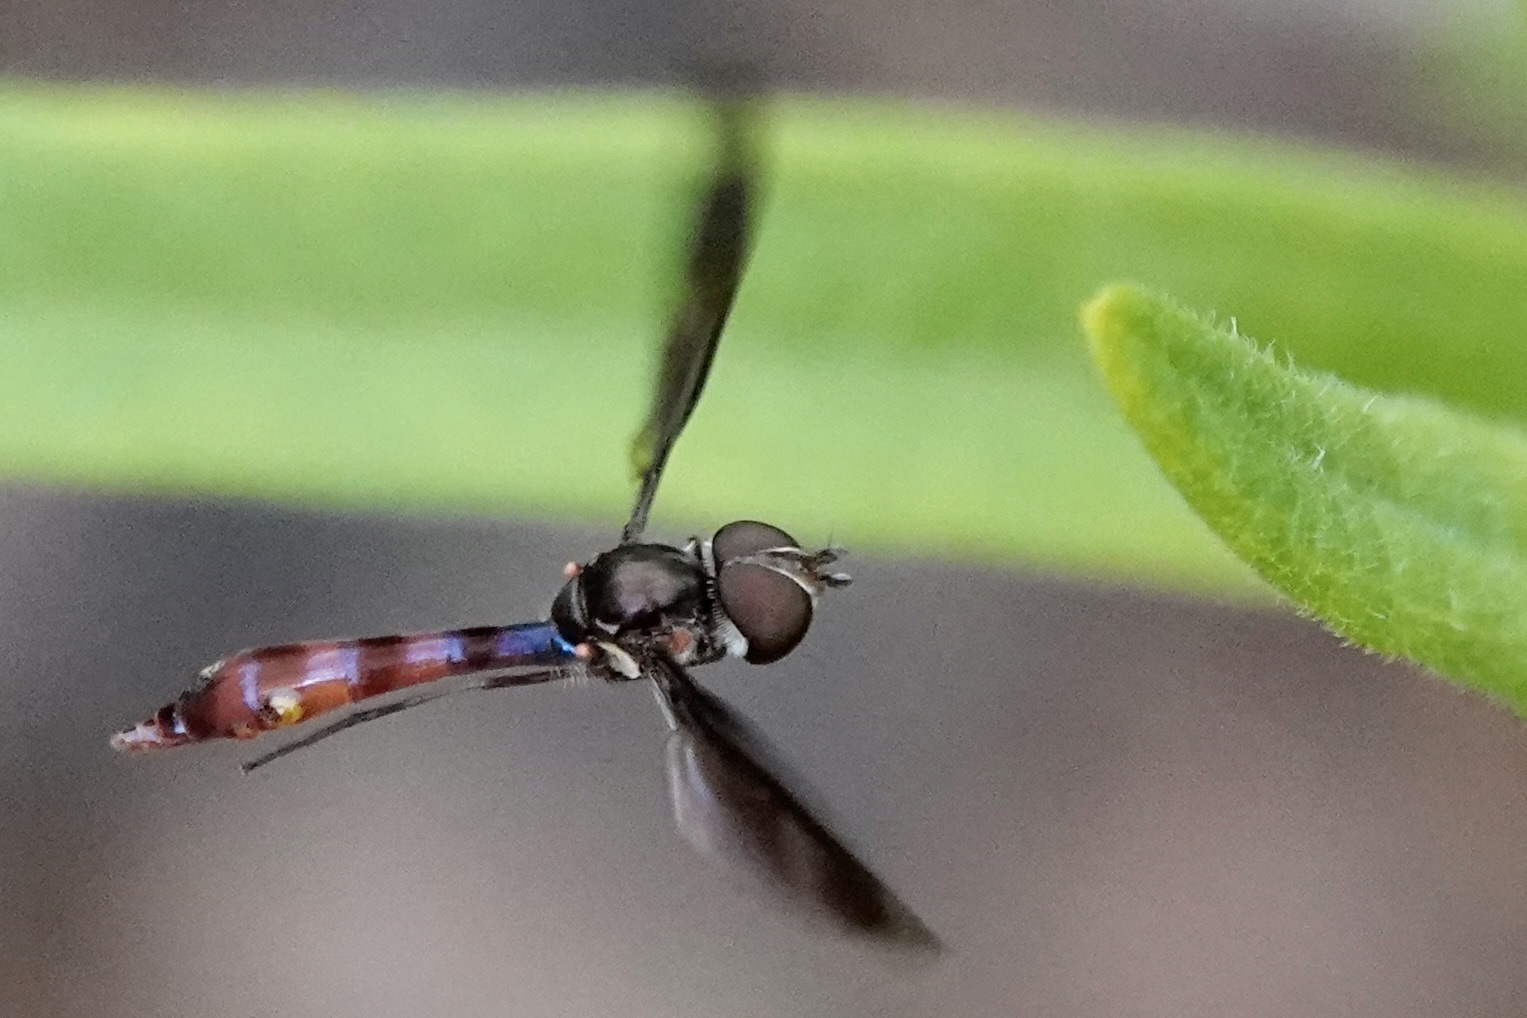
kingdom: Animalia
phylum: Arthropoda
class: Insecta
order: Diptera
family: Syrphidae
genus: Ocyptamus
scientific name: Ocyptamus fuscipennis
